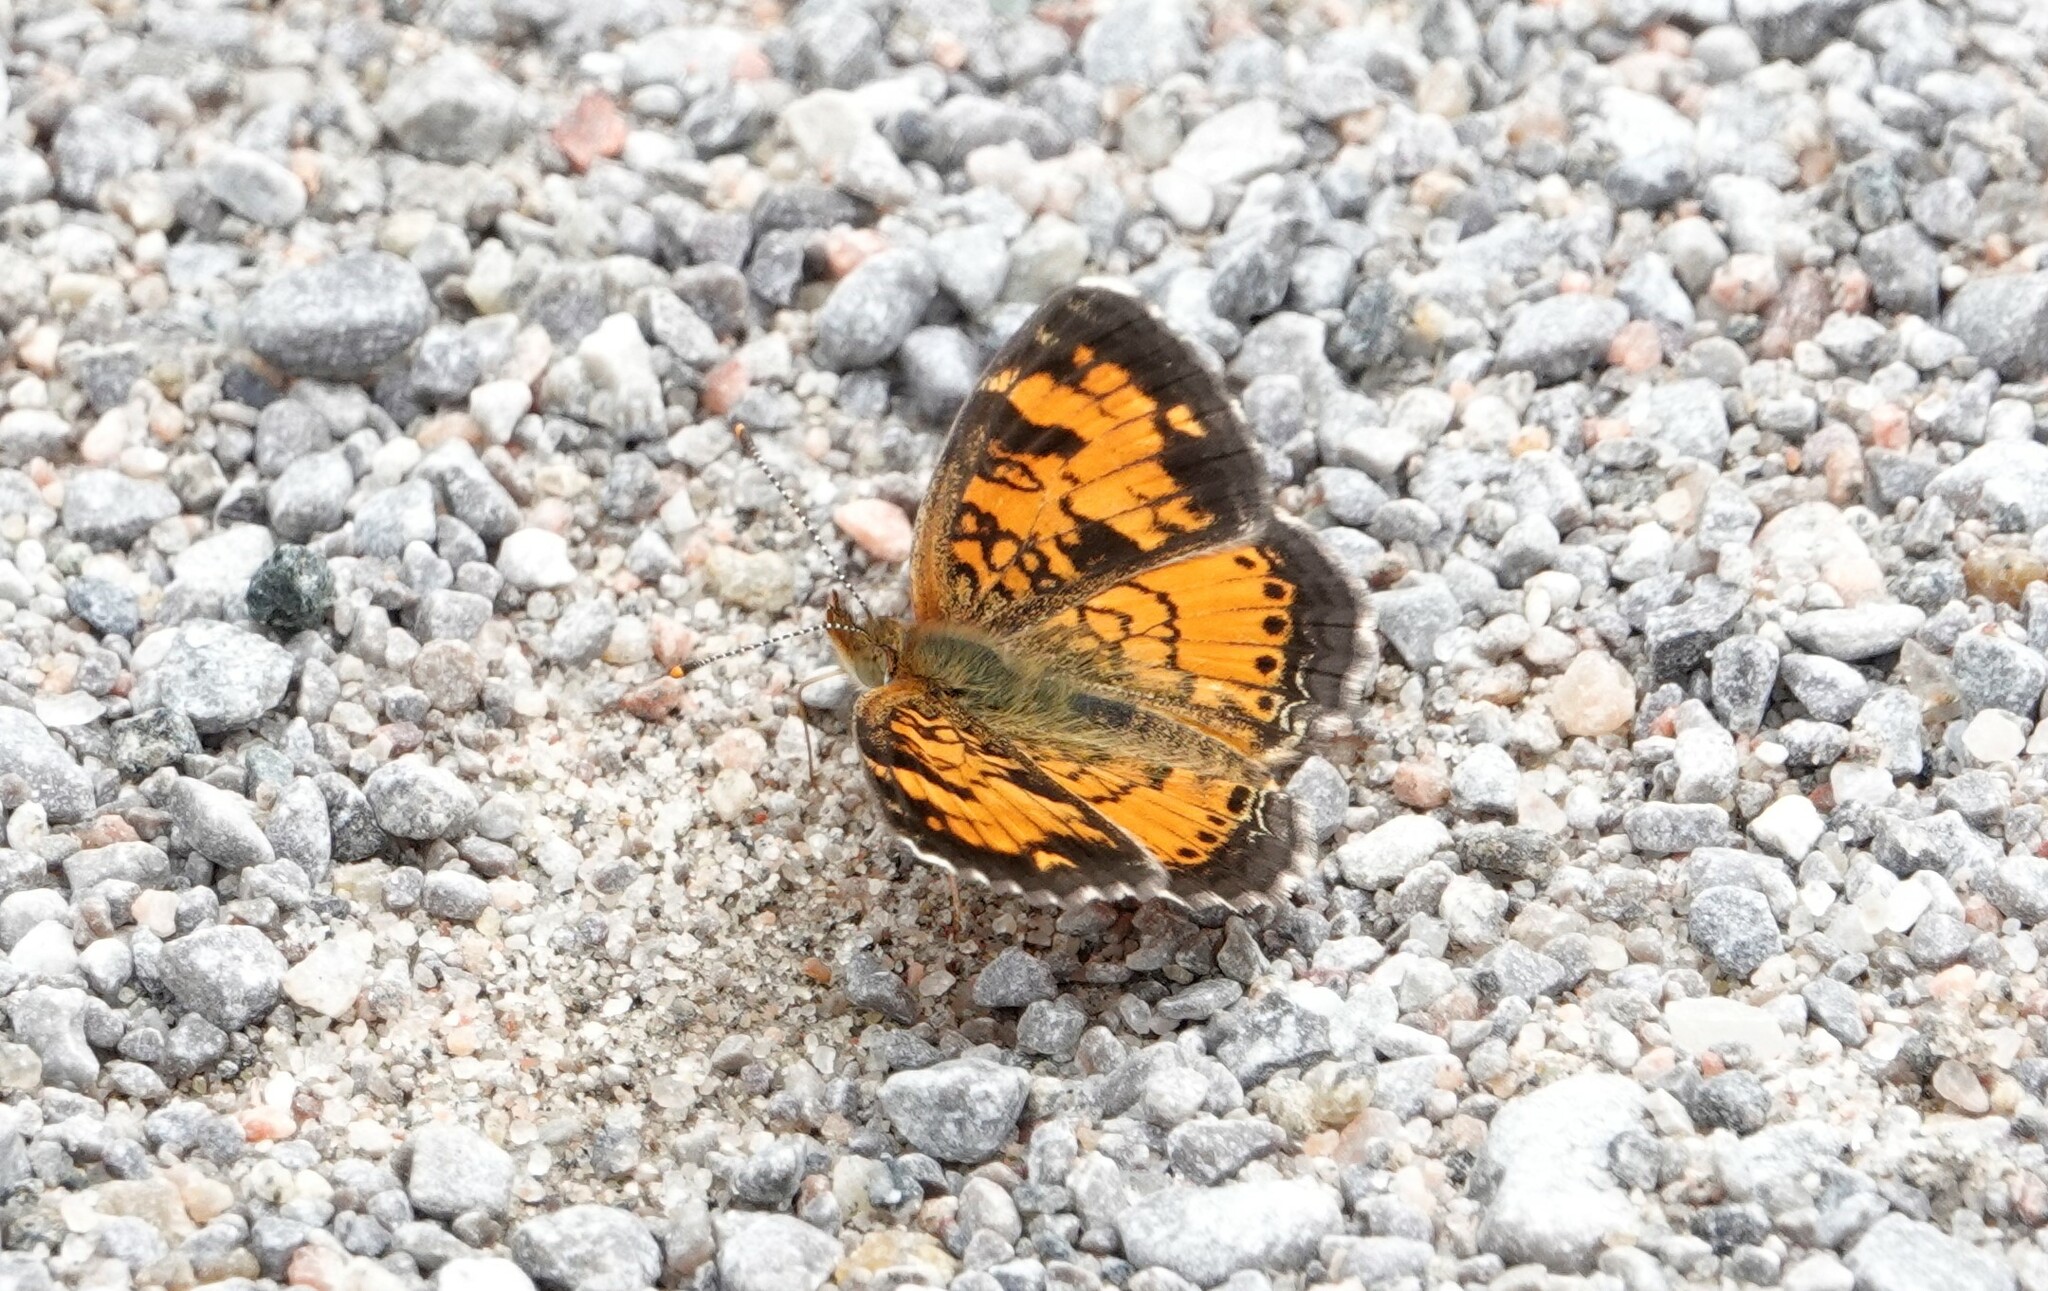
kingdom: Animalia
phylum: Arthropoda
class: Insecta
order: Lepidoptera
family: Nymphalidae
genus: Phyciodes
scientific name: Phyciodes tharos
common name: Pearl crescent
